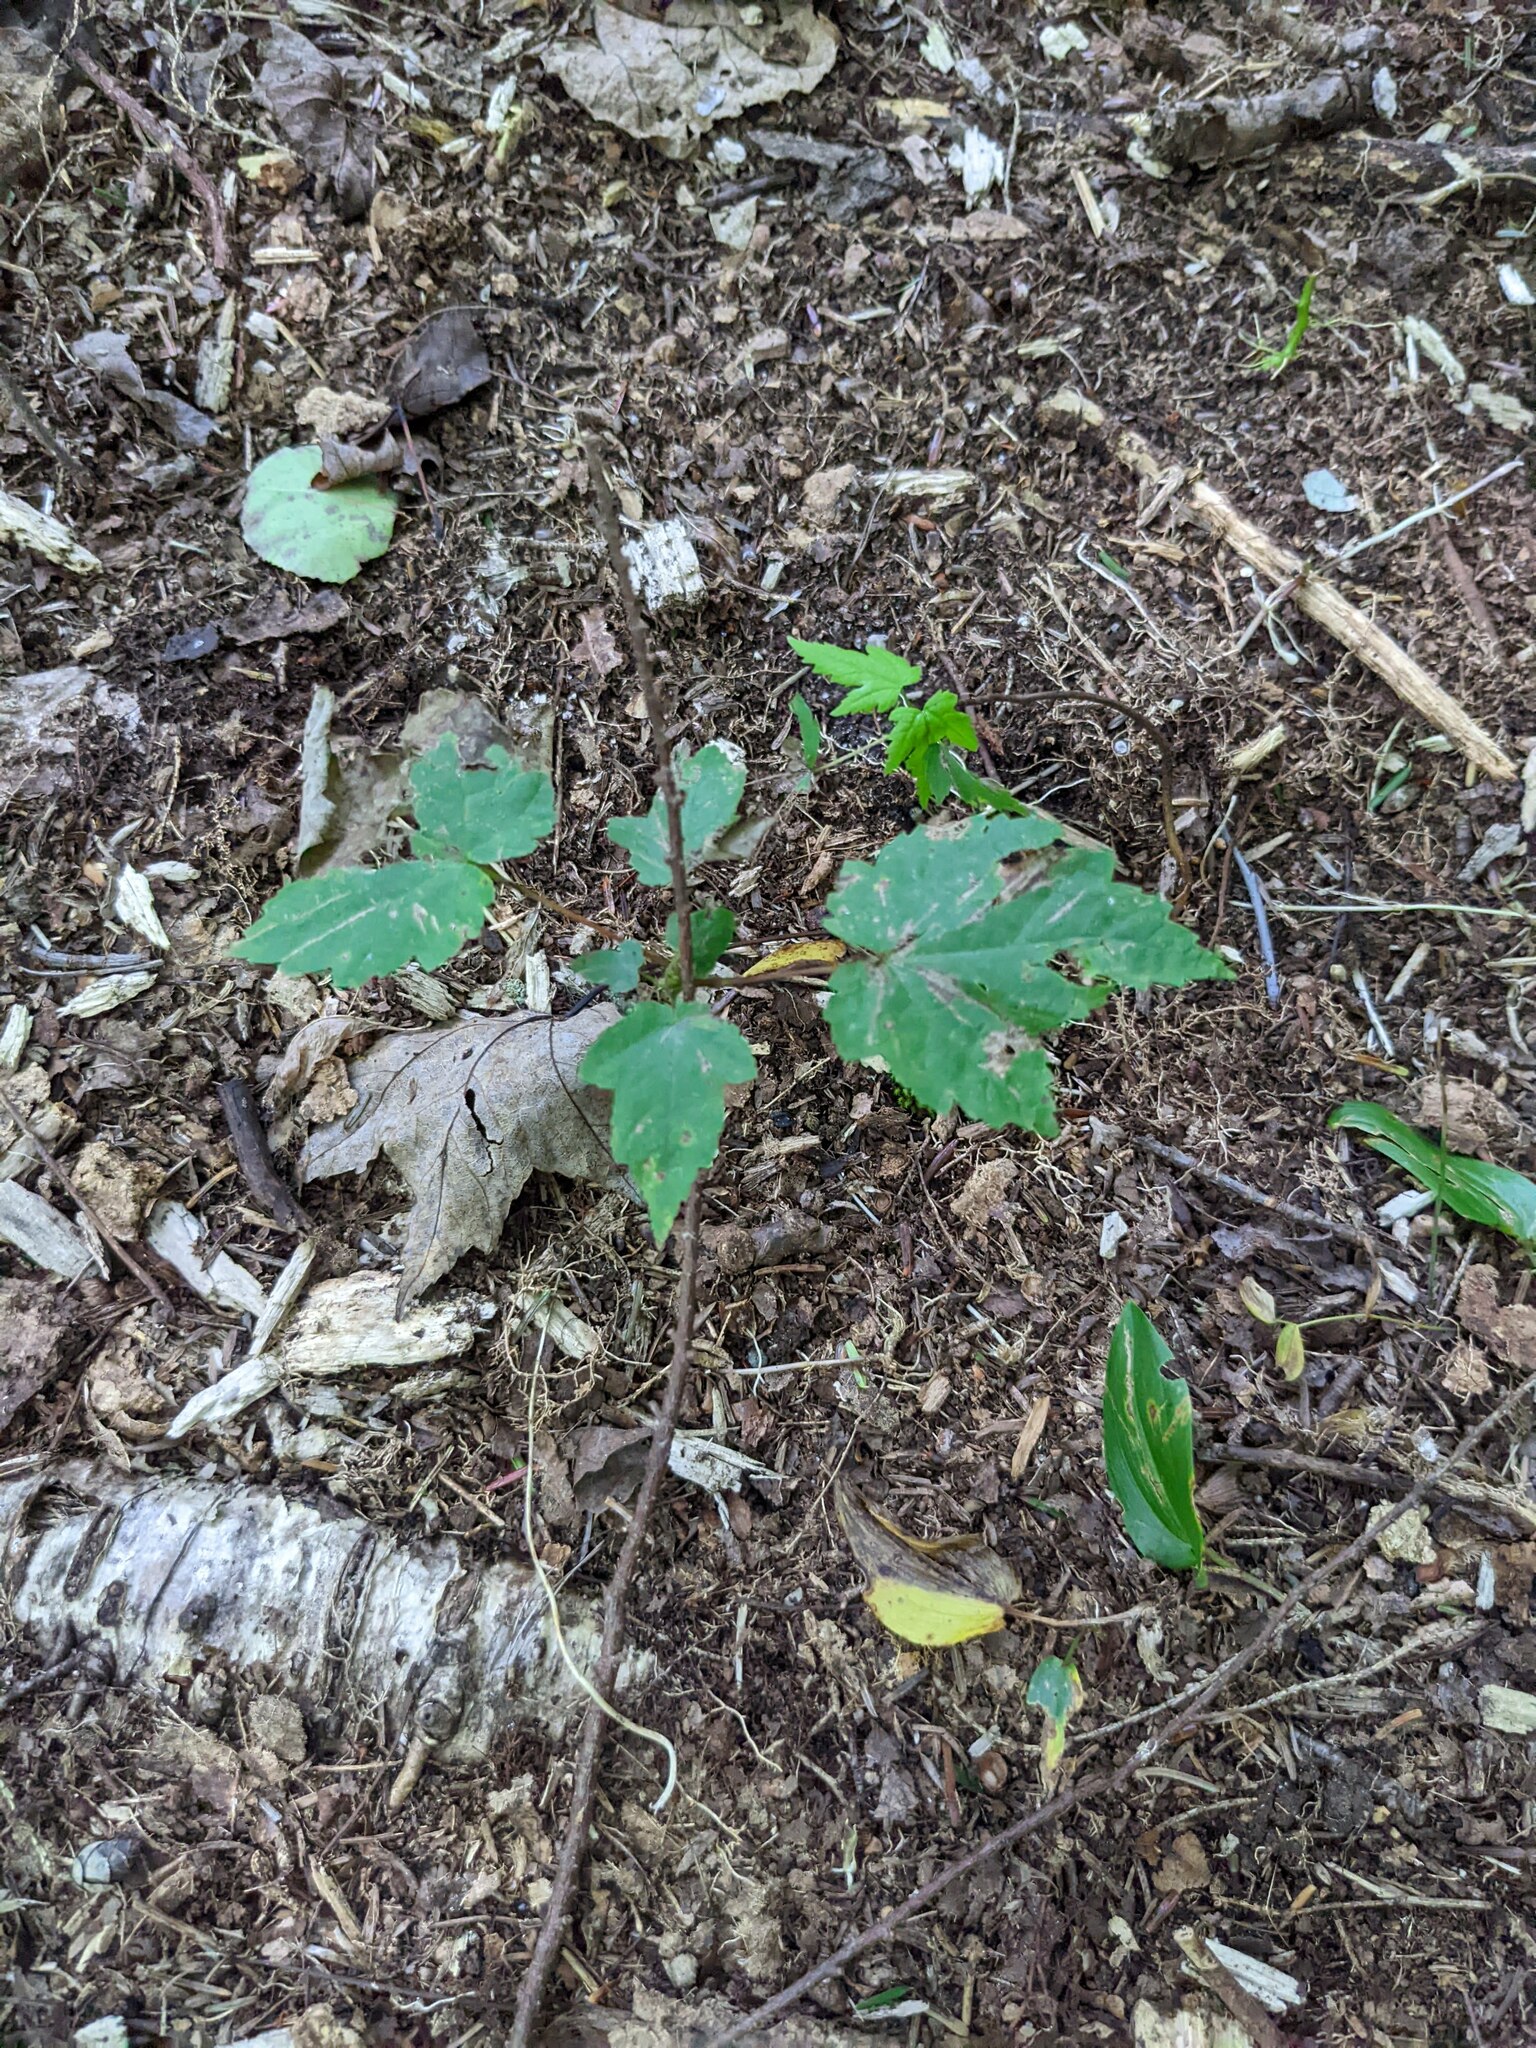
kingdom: Plantae
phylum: Tracheophyta
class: Magnoliopsida
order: Sapindales
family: Sapindaceae
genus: Acer
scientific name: Acer rubrum
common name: Red maple
